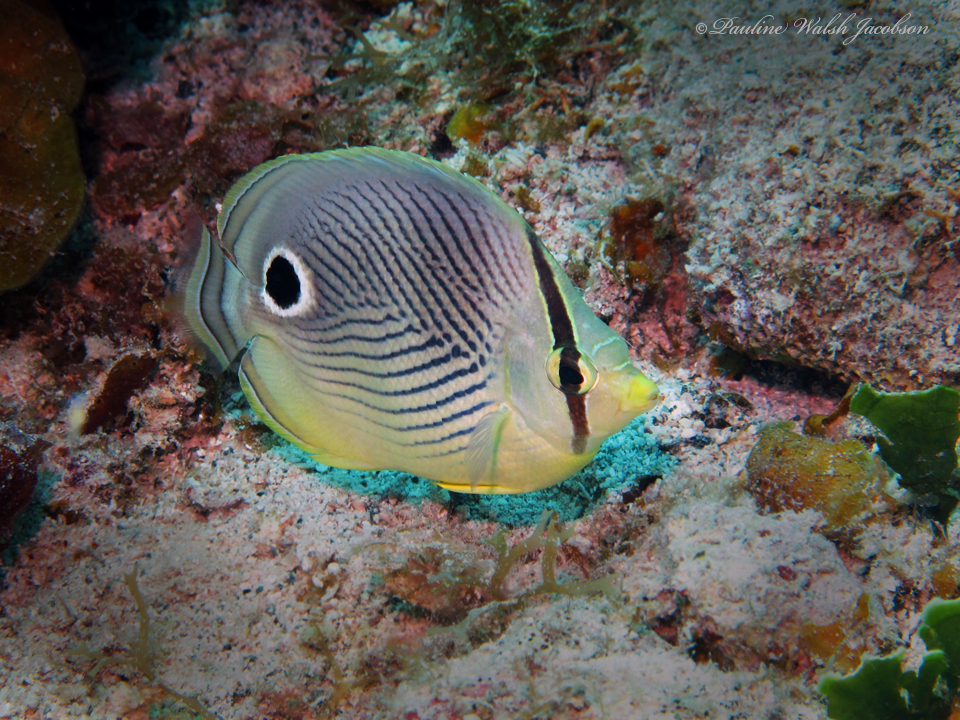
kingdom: Animalia
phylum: Chordata
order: Perciformes
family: Chaetodontidae
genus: Chaetodon
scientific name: Chaetodon capistratus
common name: Kete
